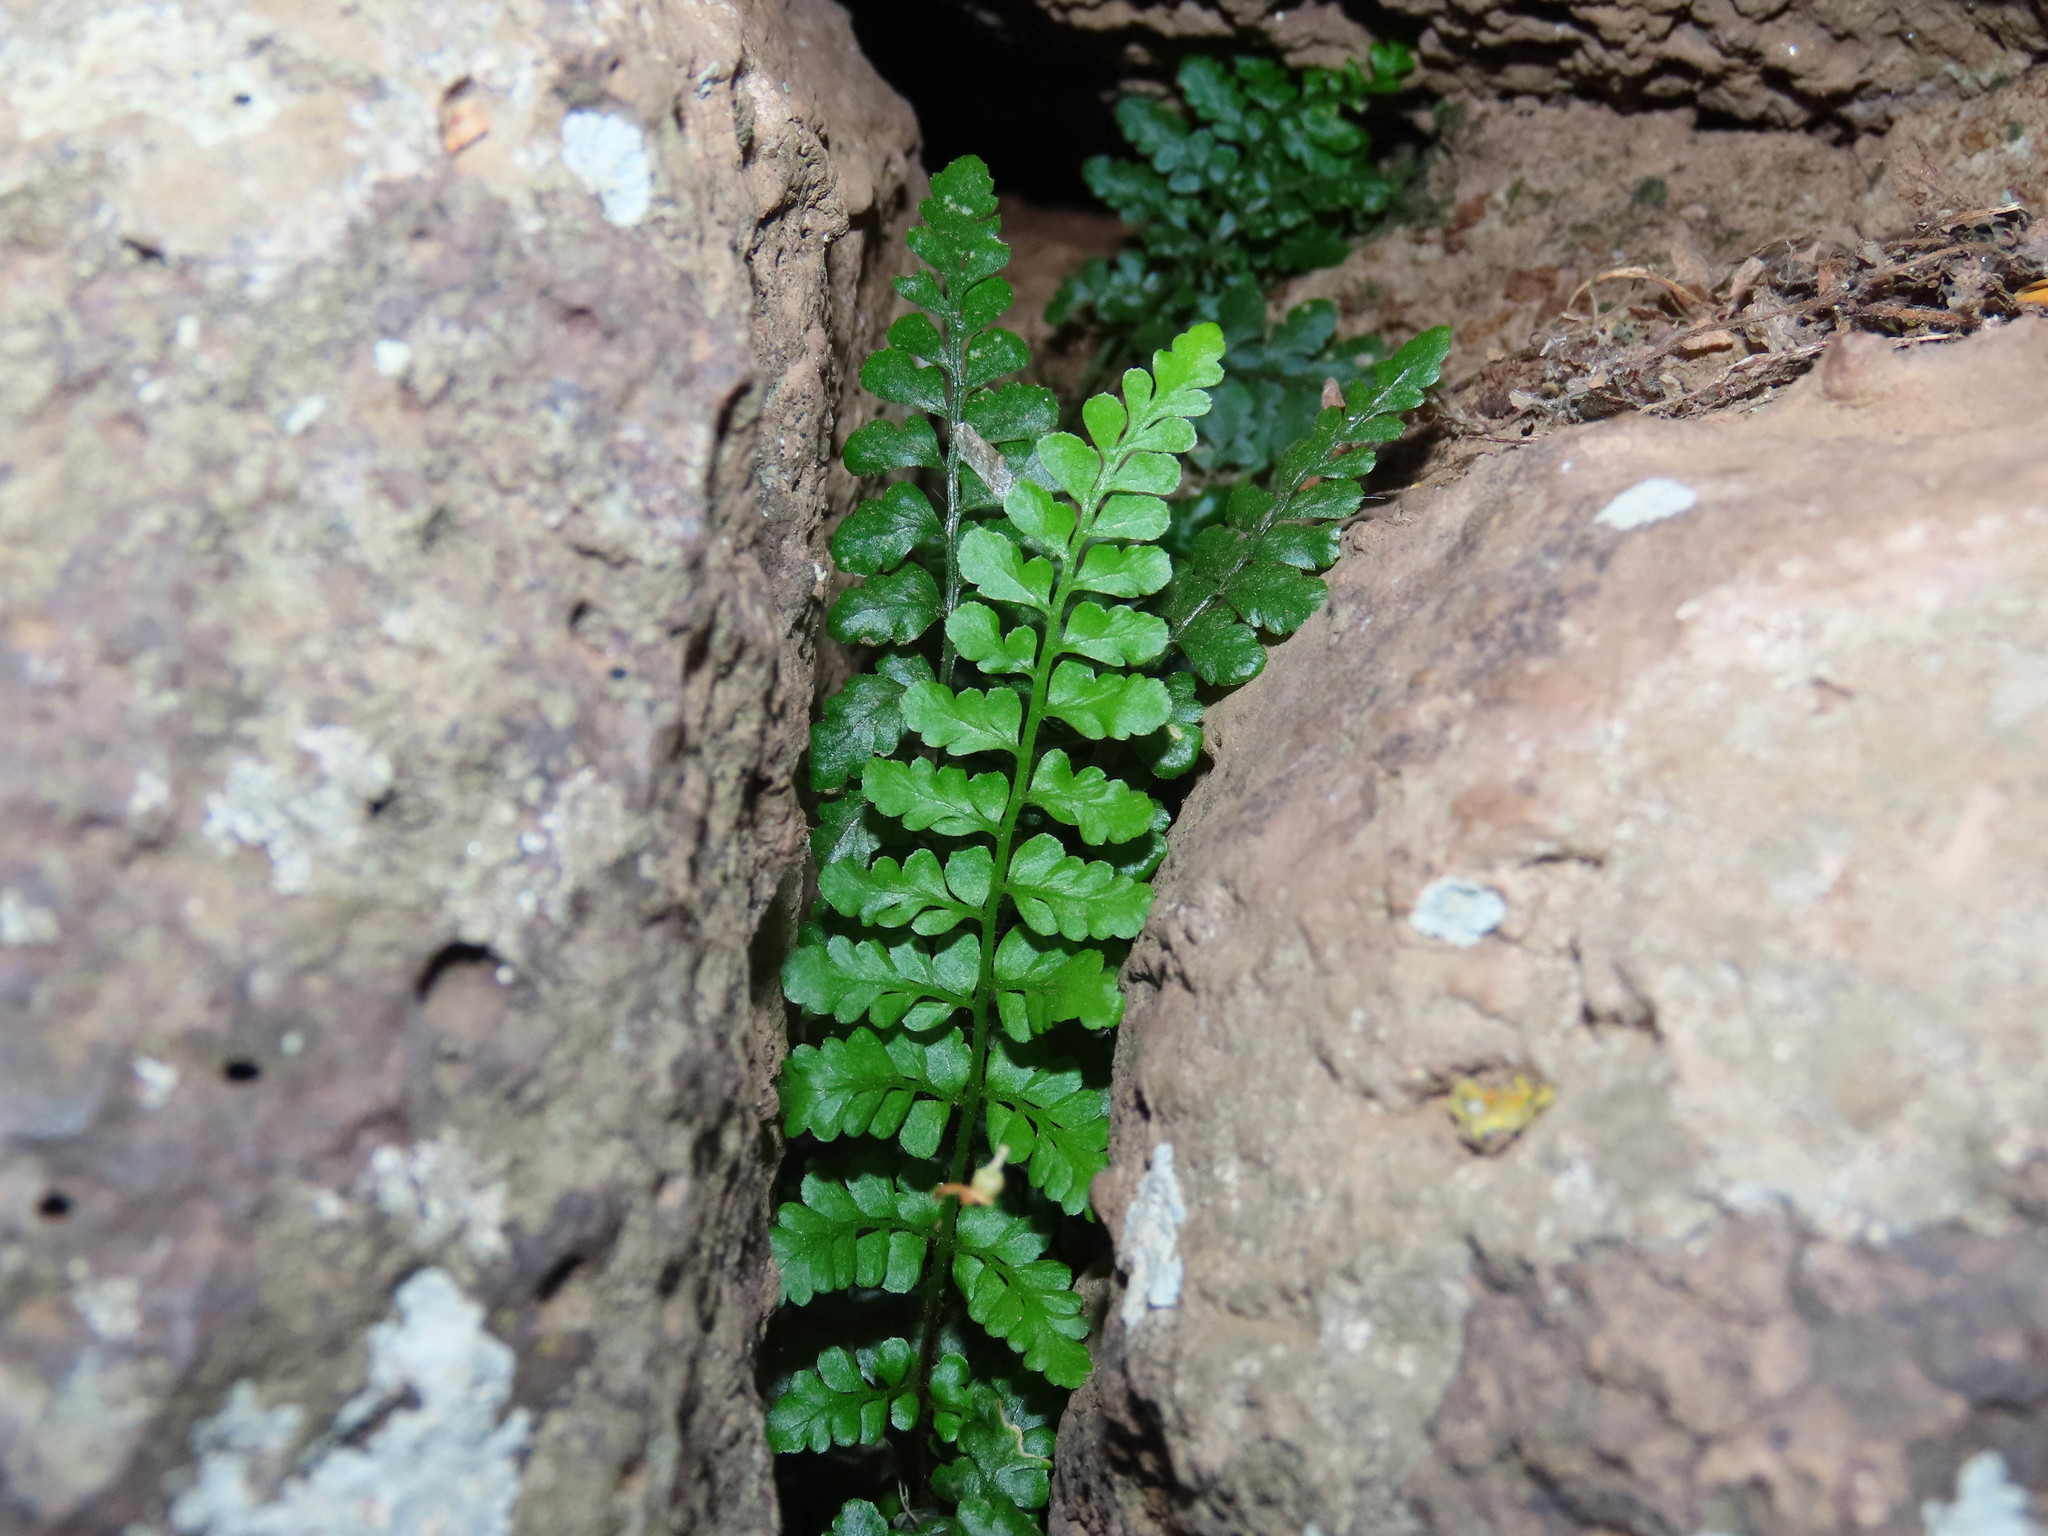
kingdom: Plantae
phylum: Tracheophyta
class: Polypodiopsida
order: Polypodiales
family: Aspleniaceae
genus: Asplenium
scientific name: Asplenium obovatum
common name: Lanceolate spleenwort
